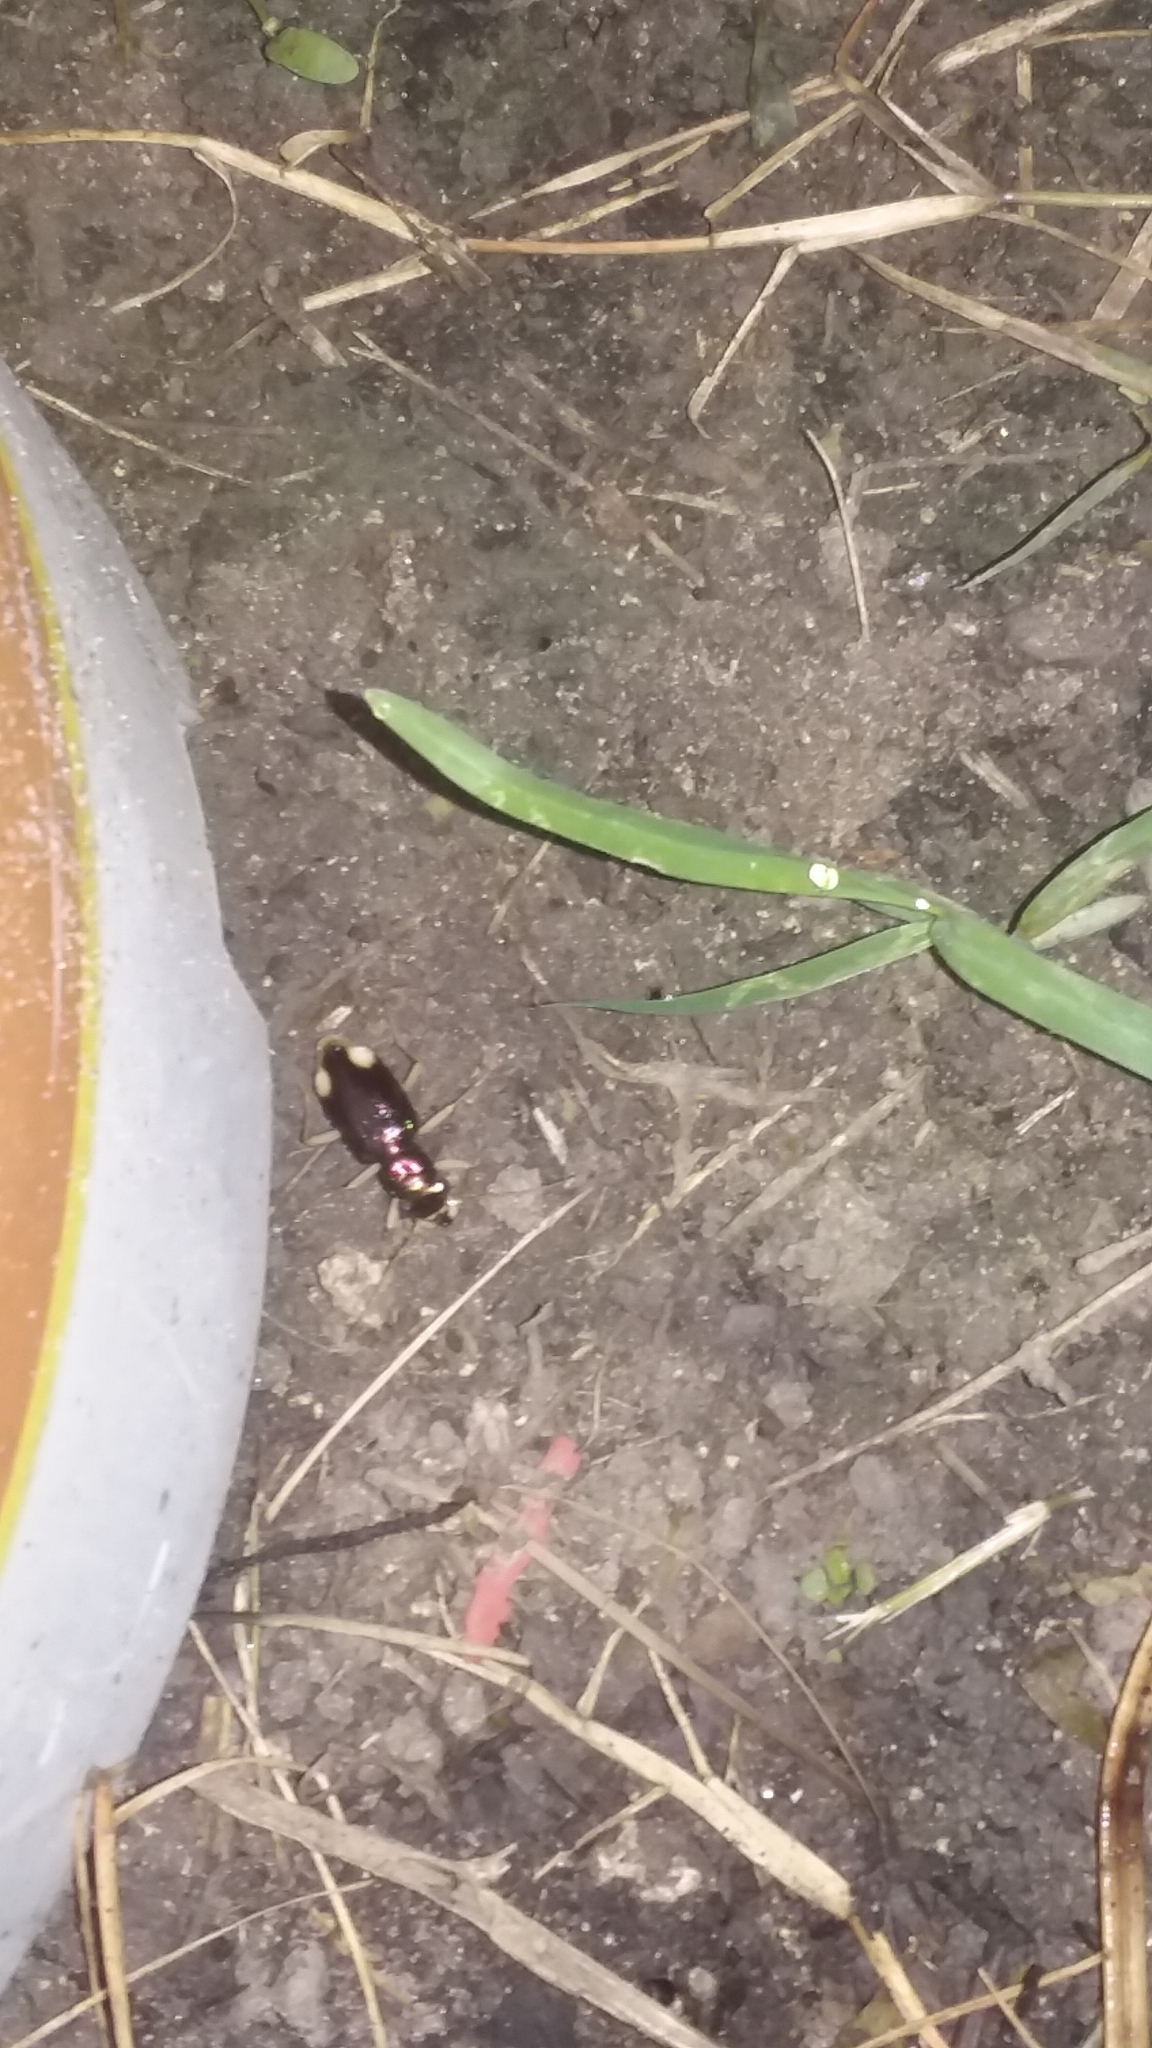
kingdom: Animalia
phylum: Arthropoda
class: Insecta
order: Coleoptera
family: Carabidae
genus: Tetracha
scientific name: Tetracha carolina
